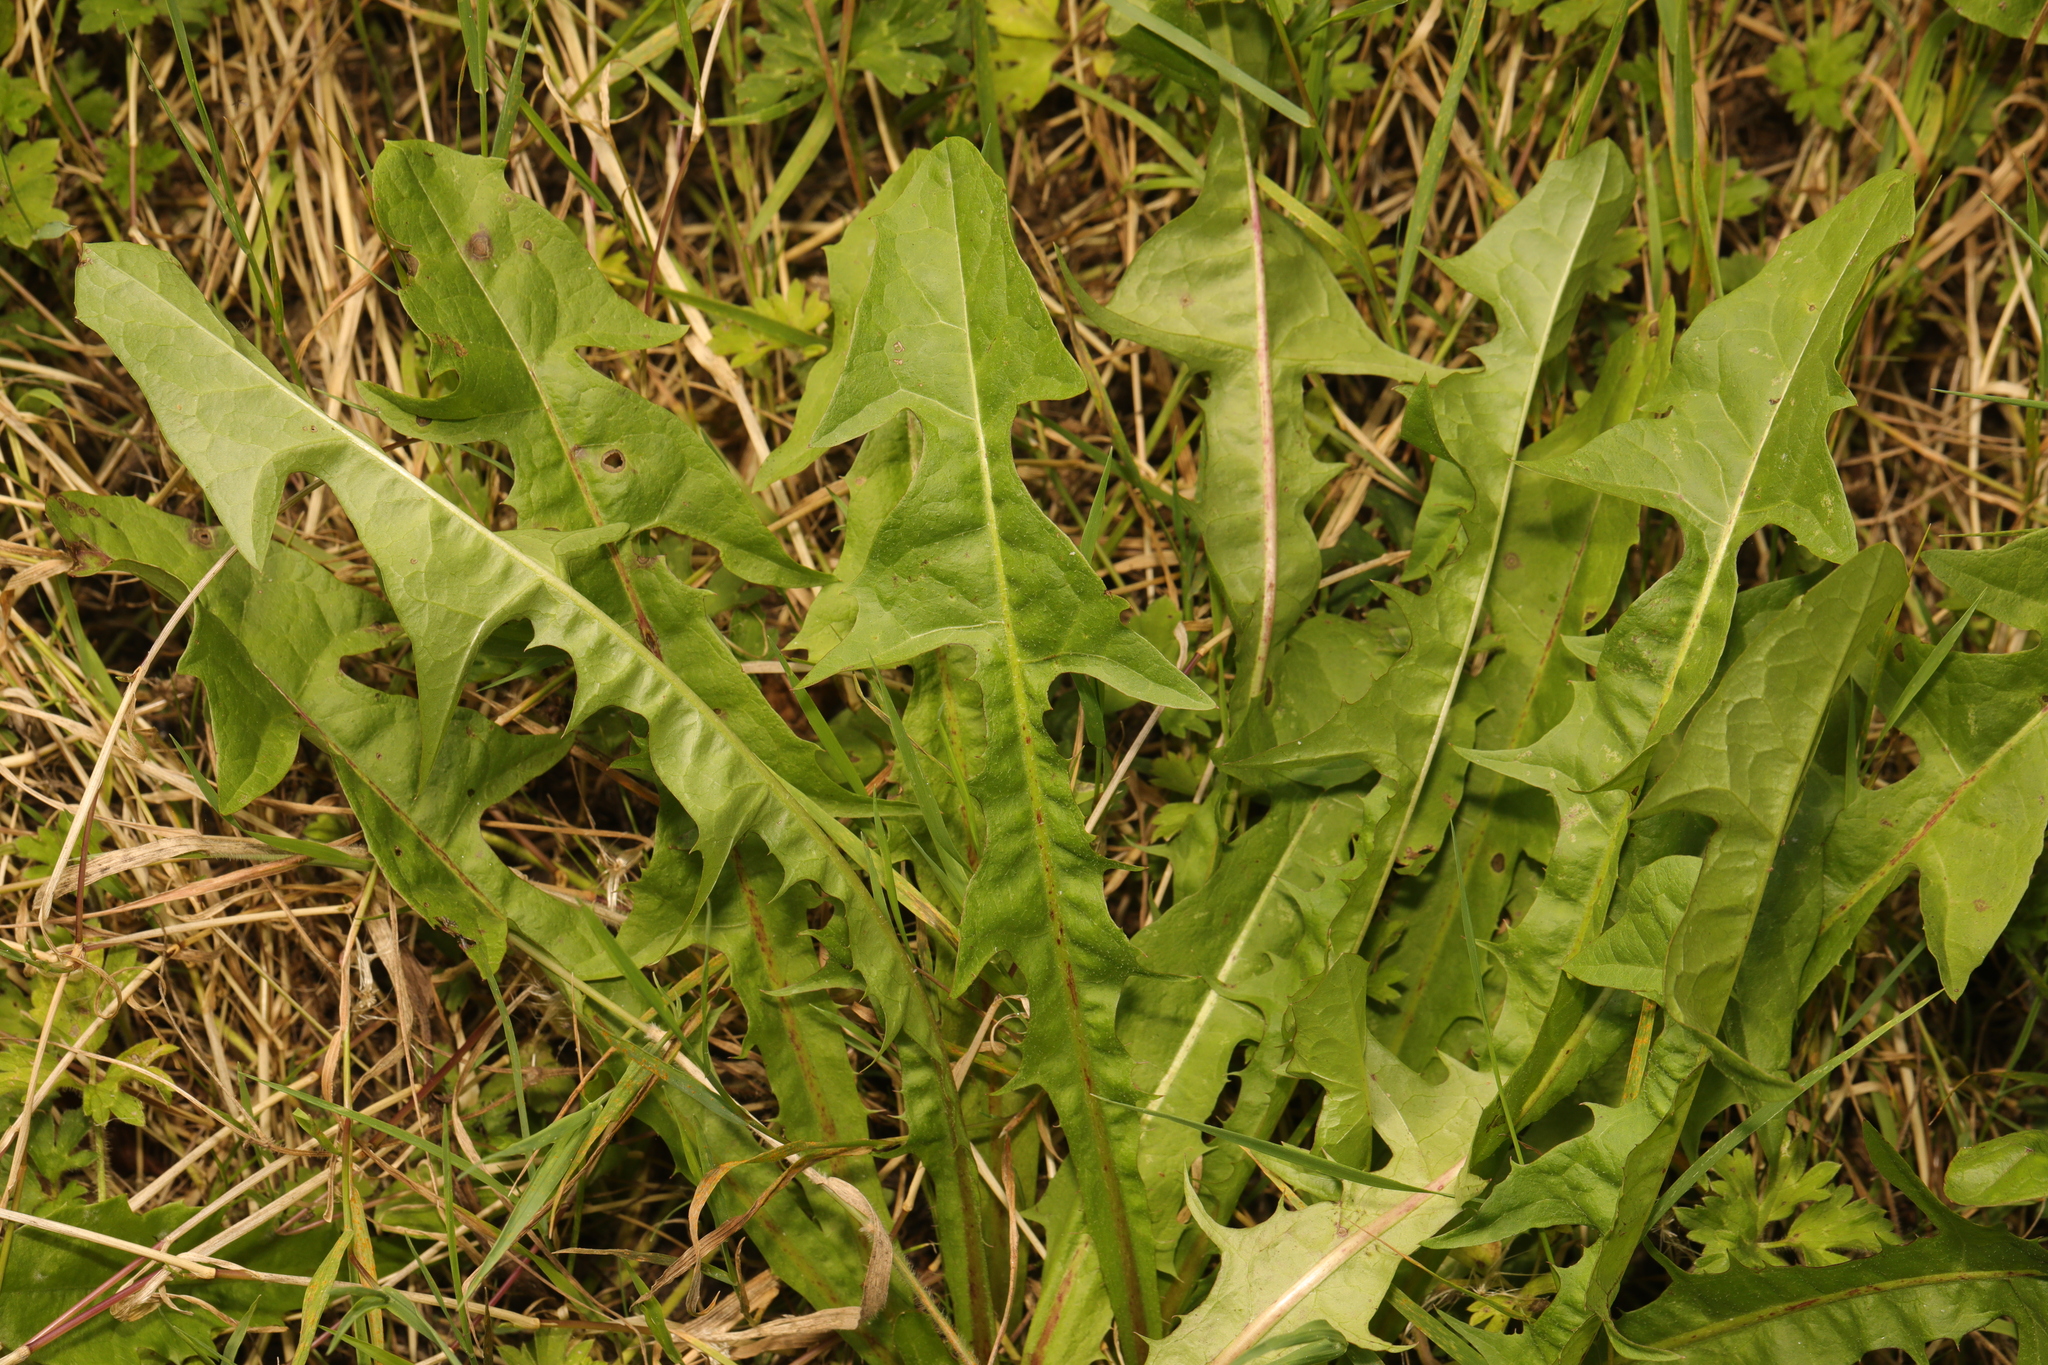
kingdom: Plantae
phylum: Tracheophyta
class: Magnoliopsida
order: Asterales
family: Asteraceae
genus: Taraxacum
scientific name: Taraxacum officinale
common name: Common dandelion
